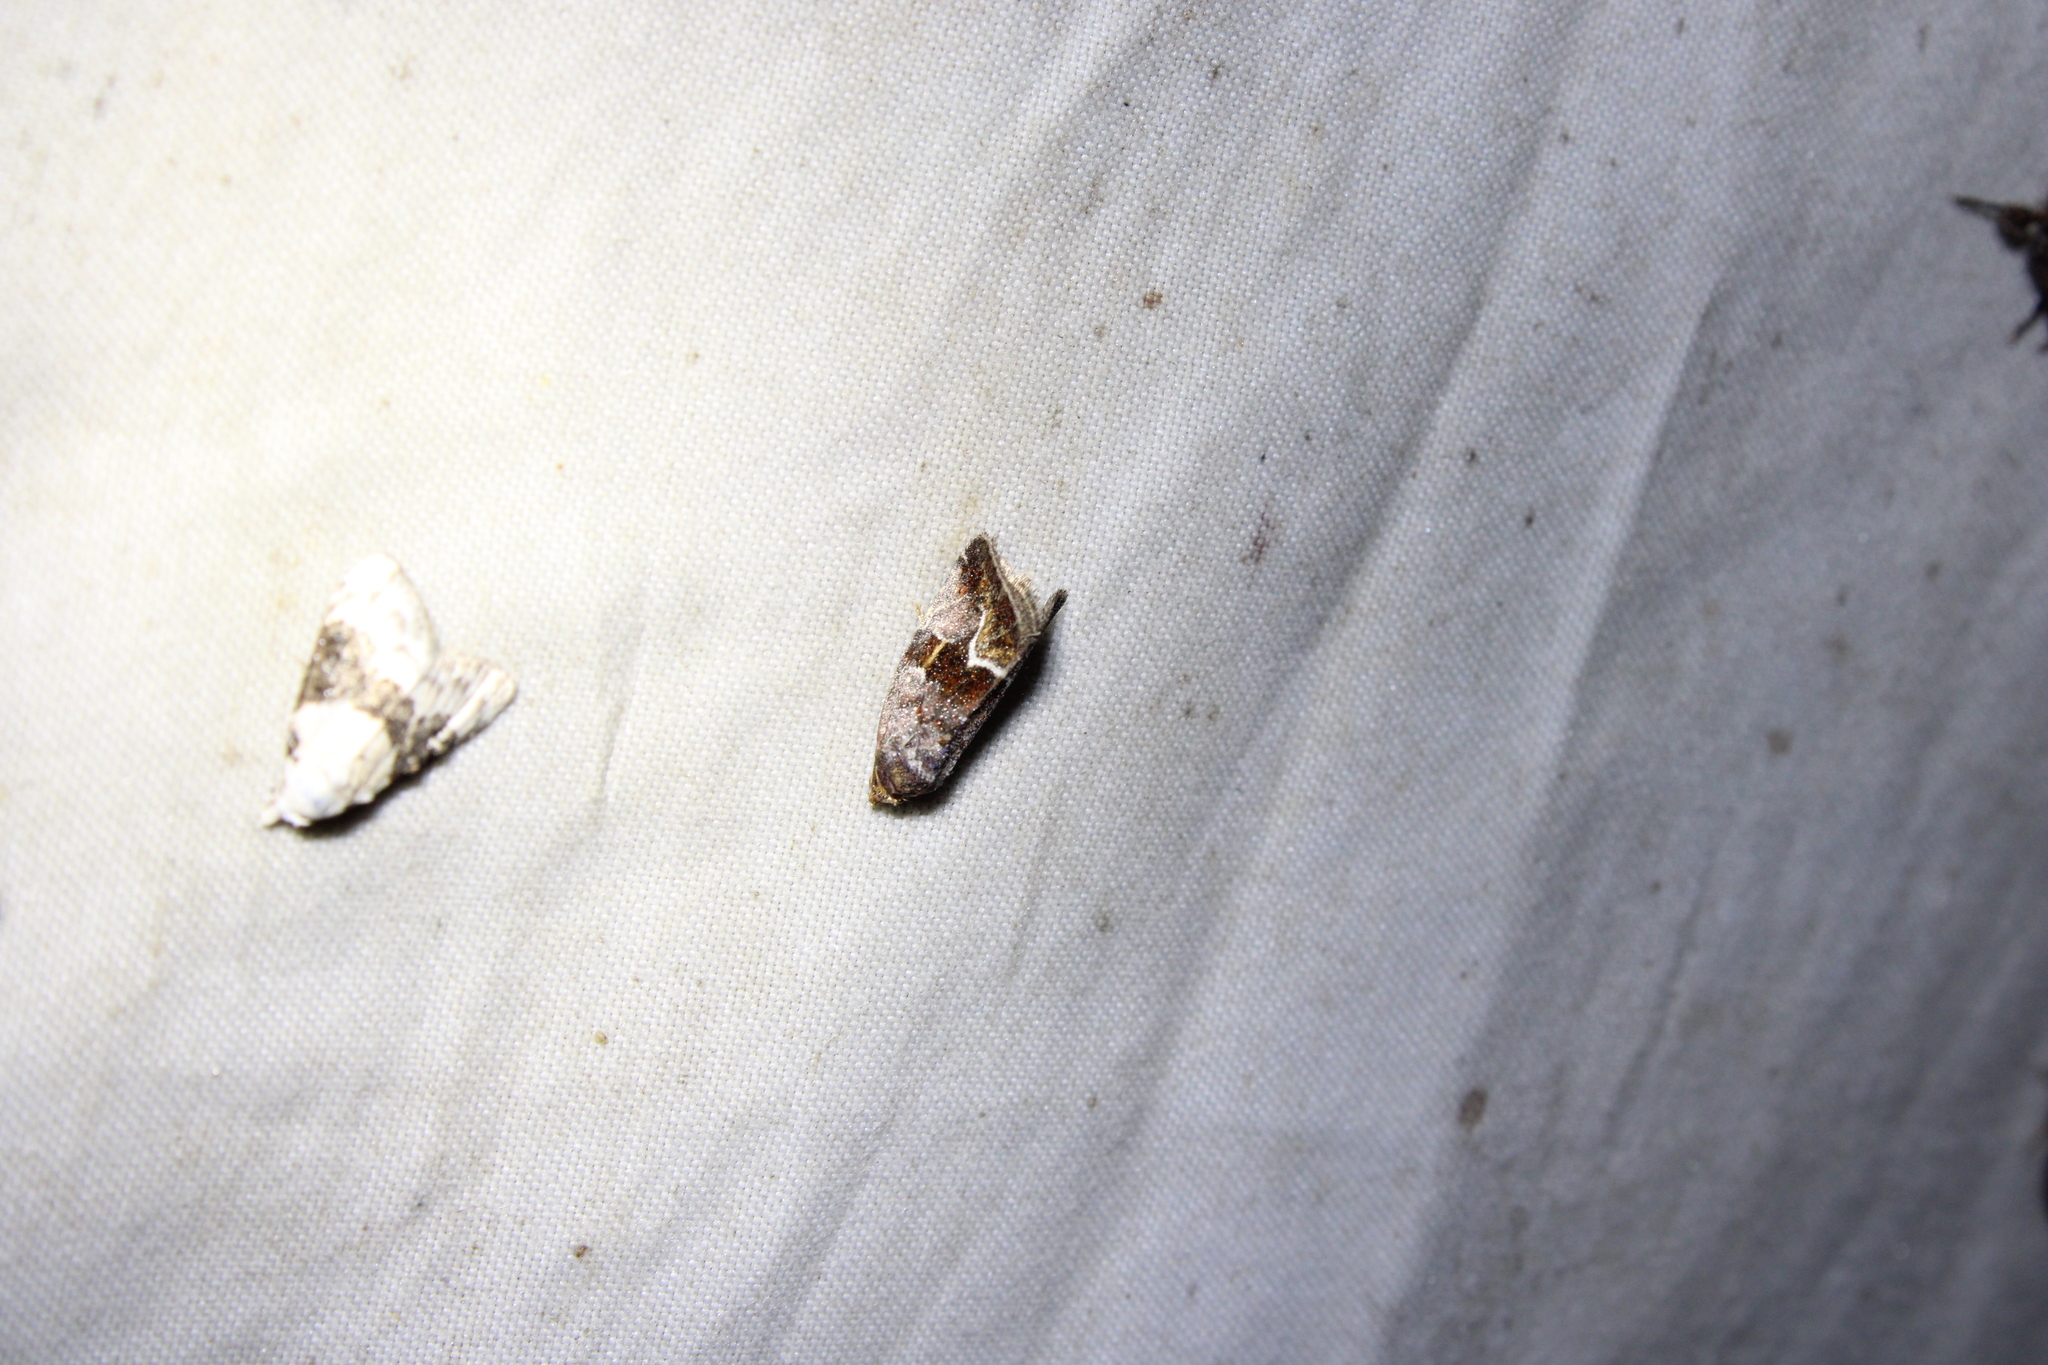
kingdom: Animalia
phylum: Arthropoda
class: Insecta
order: Lepidoptera
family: Noctuidae
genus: Deltote
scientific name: Deltote bellicula
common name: Bog glyph
